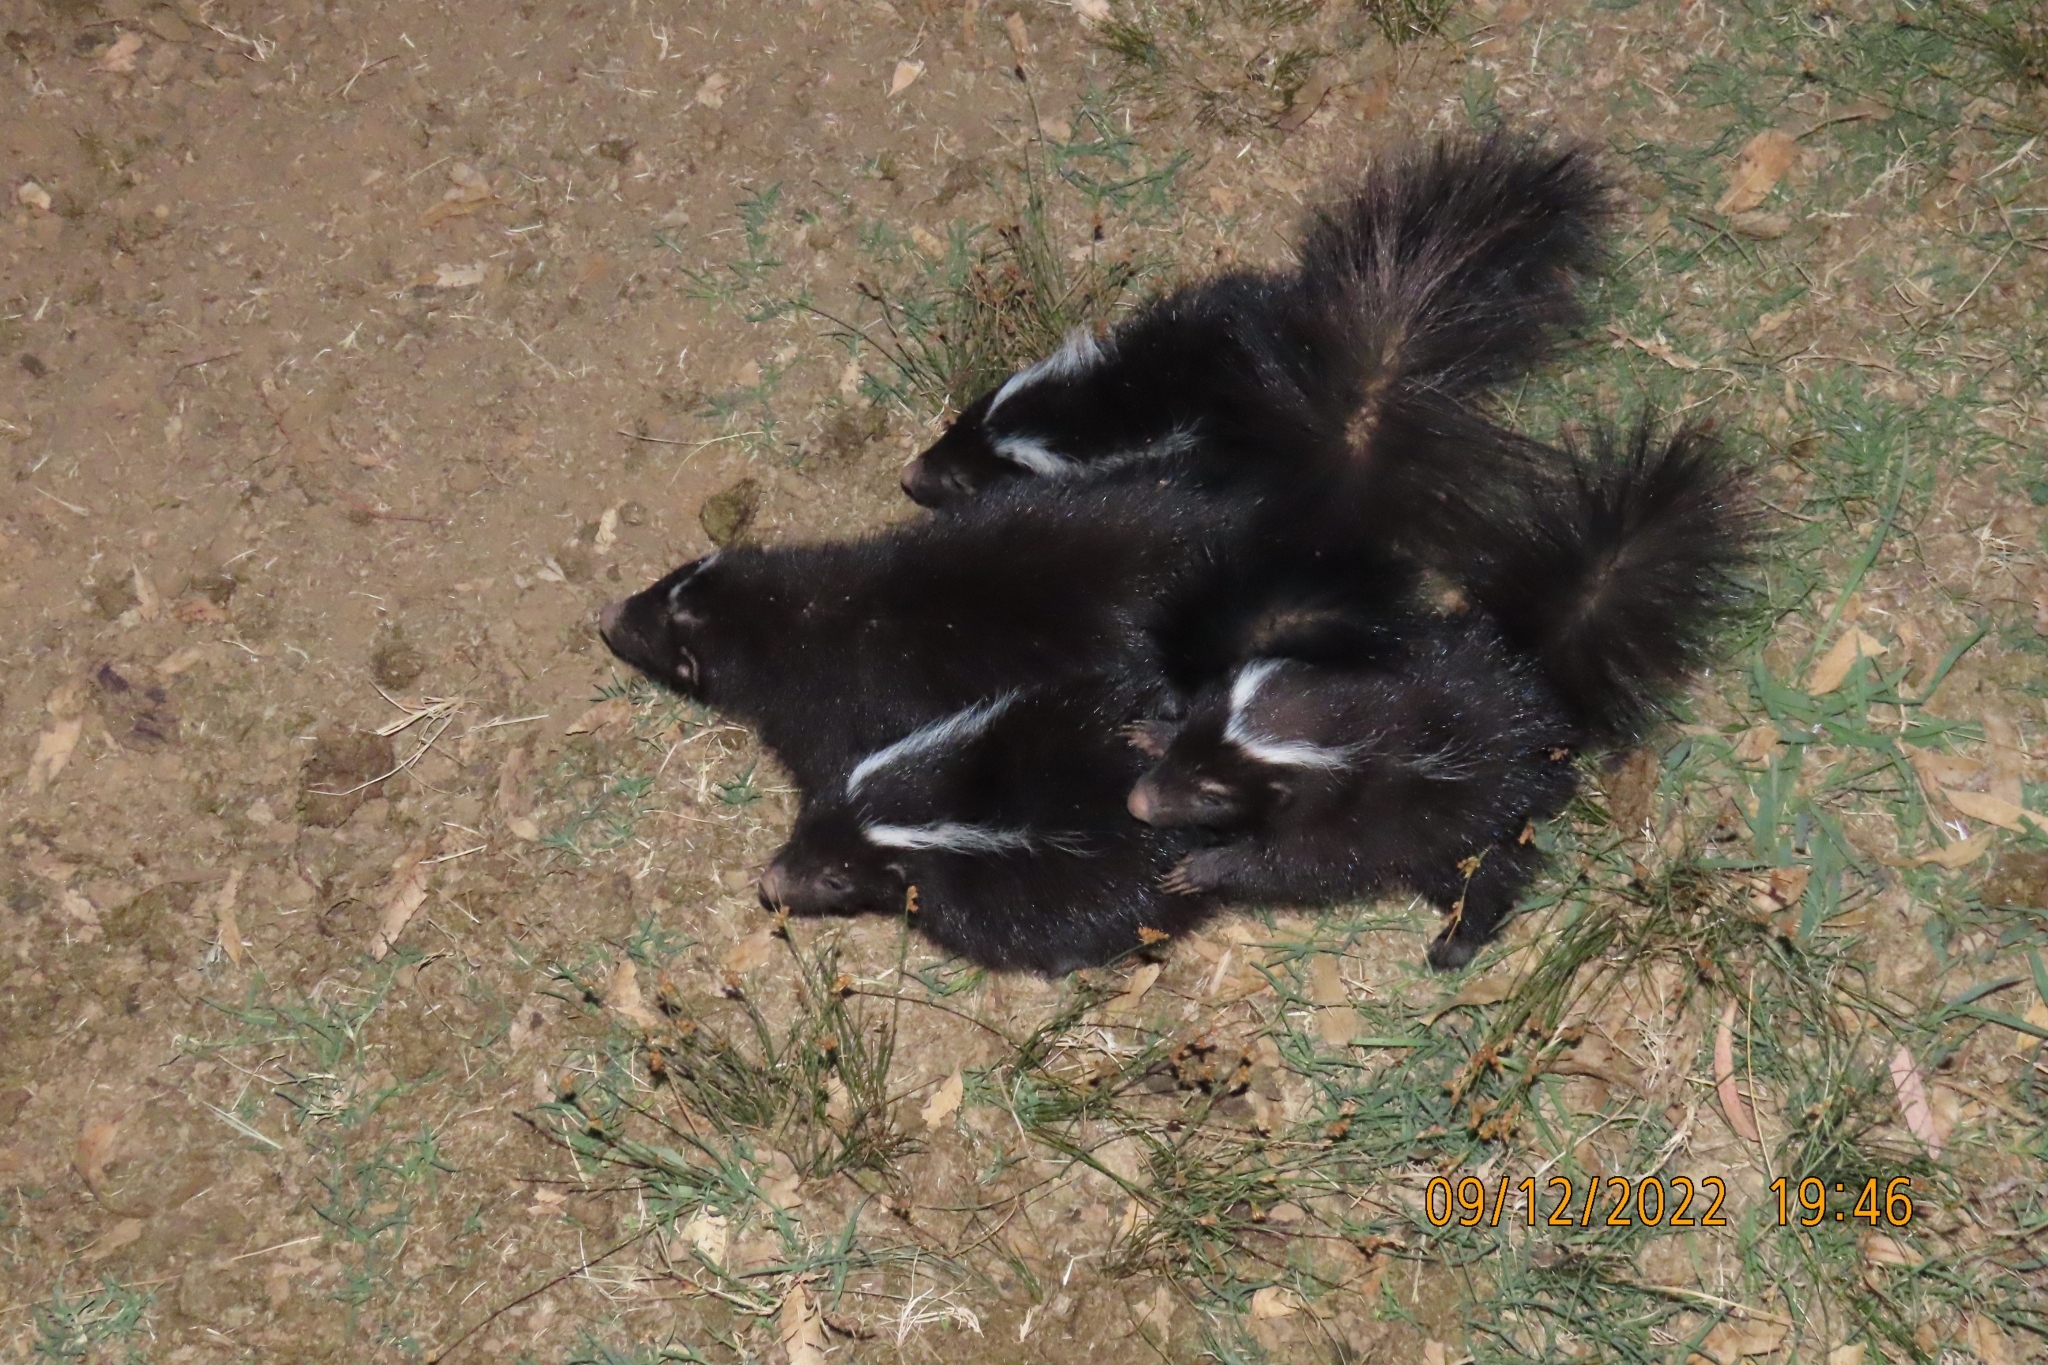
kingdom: Animalia
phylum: Chordata
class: Mammalia
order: Carnivora
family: Mephitidae
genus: Conepatus
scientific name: Conepatus chinga
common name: Molina's hog-nosed skunk
